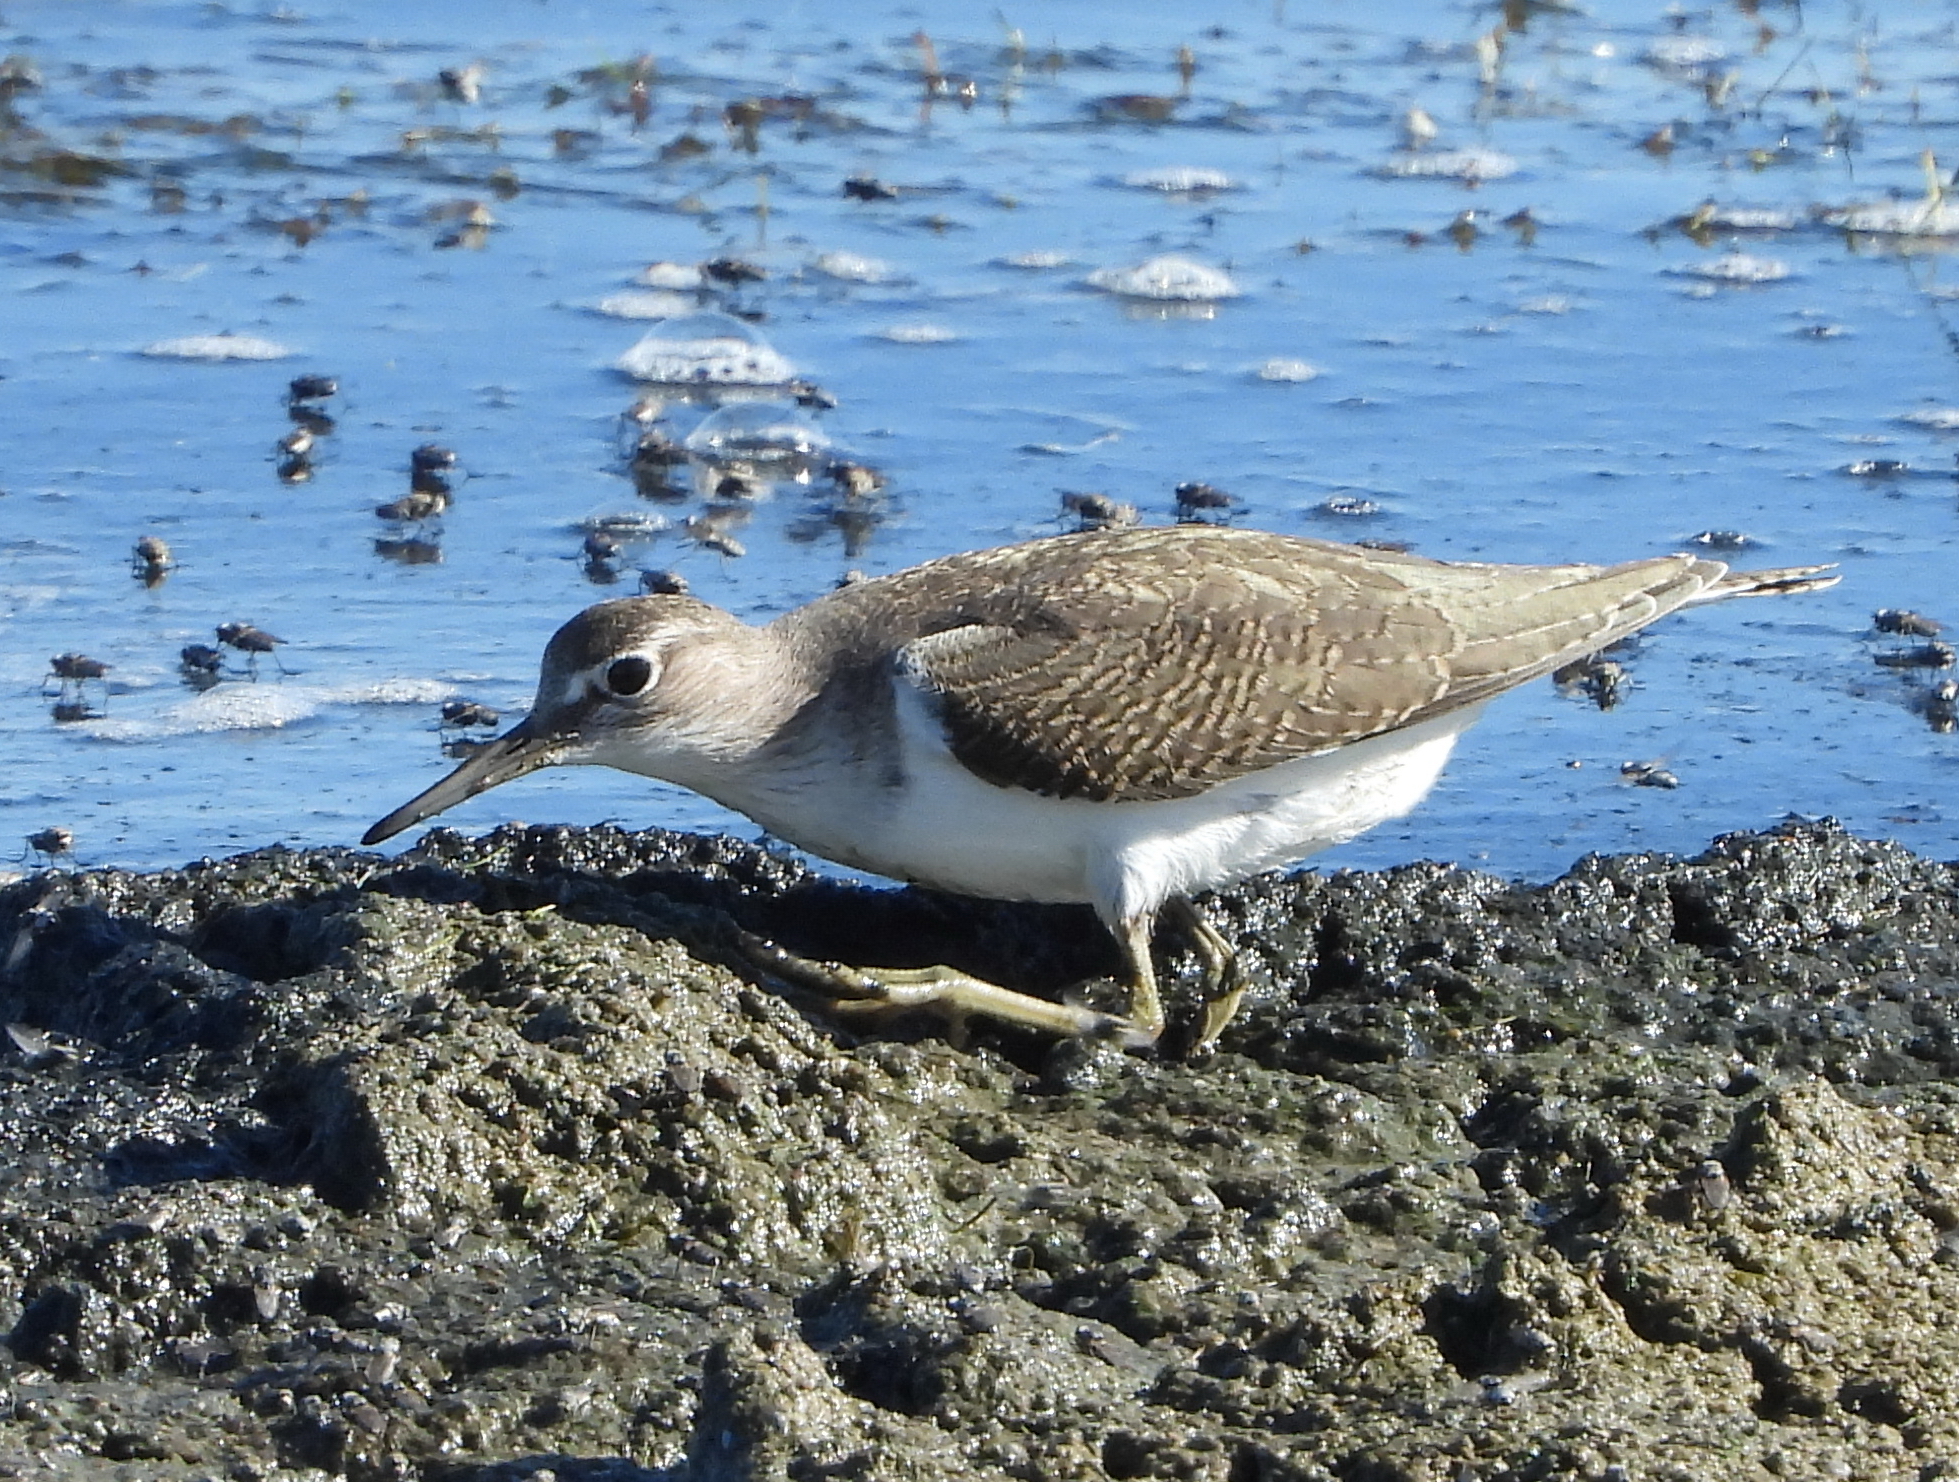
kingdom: Animalia
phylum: Chordata
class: Aves
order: Charadriiformes
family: Scolopacidae
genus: Actitis
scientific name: Actitis hypoleucos
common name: Common sandpiper
